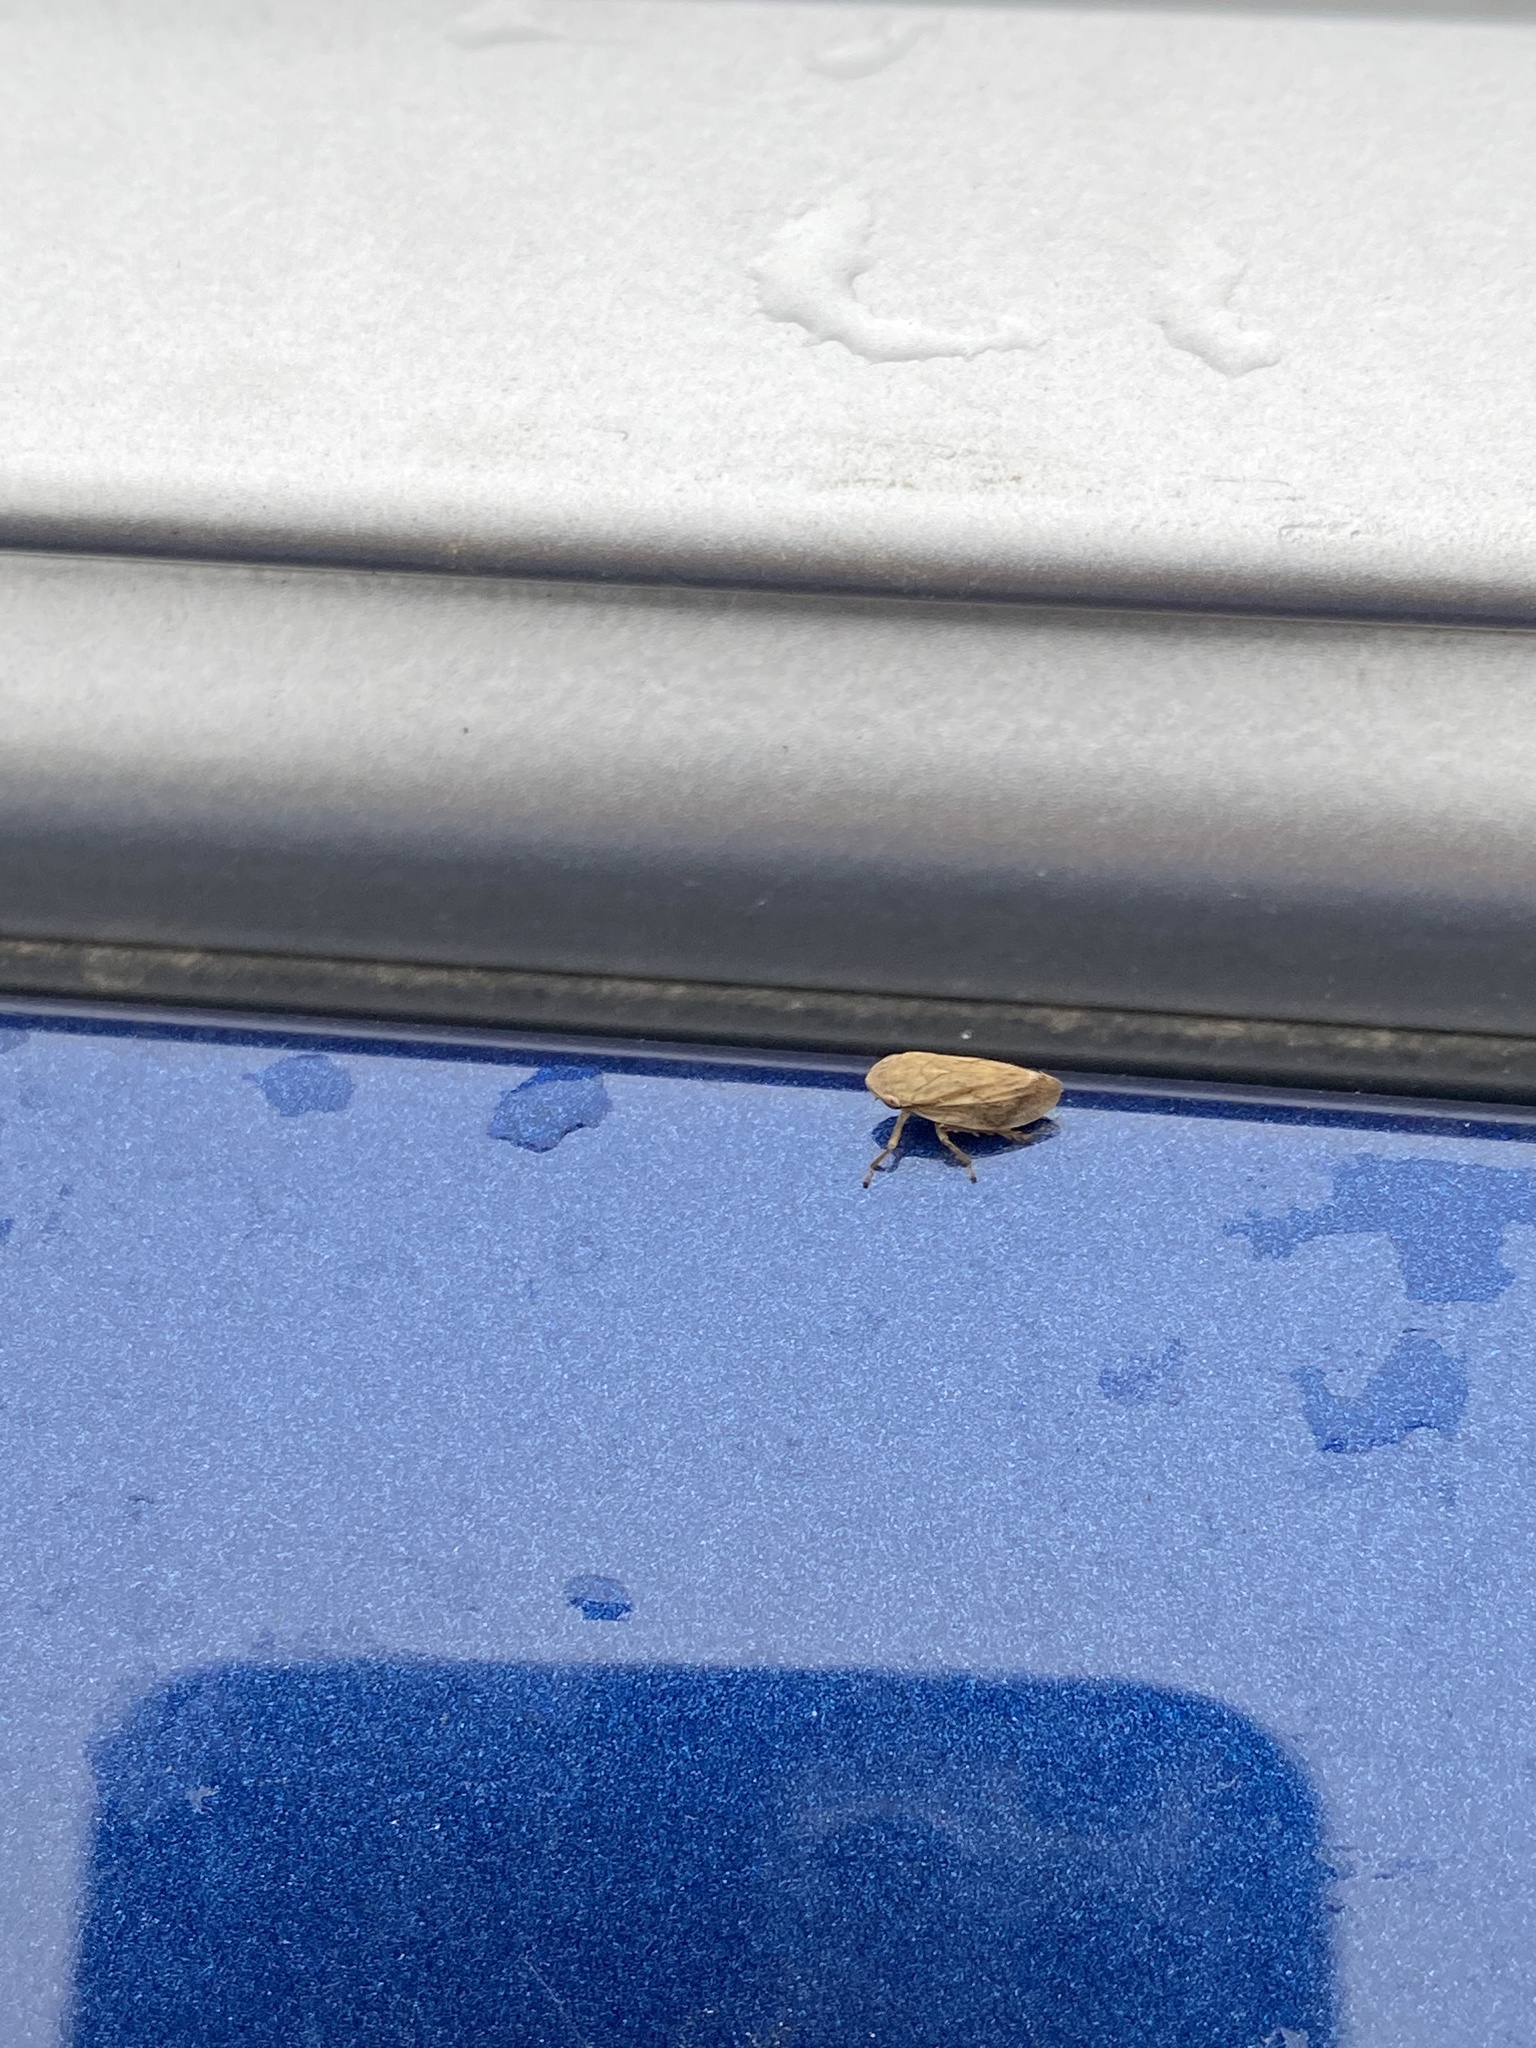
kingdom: Animalia
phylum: Arthropoda
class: Insecta
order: Hemiptera
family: Aphrophoridae
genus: Philaenus
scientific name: Philaenus spumarius
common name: Meadow spittlebug
